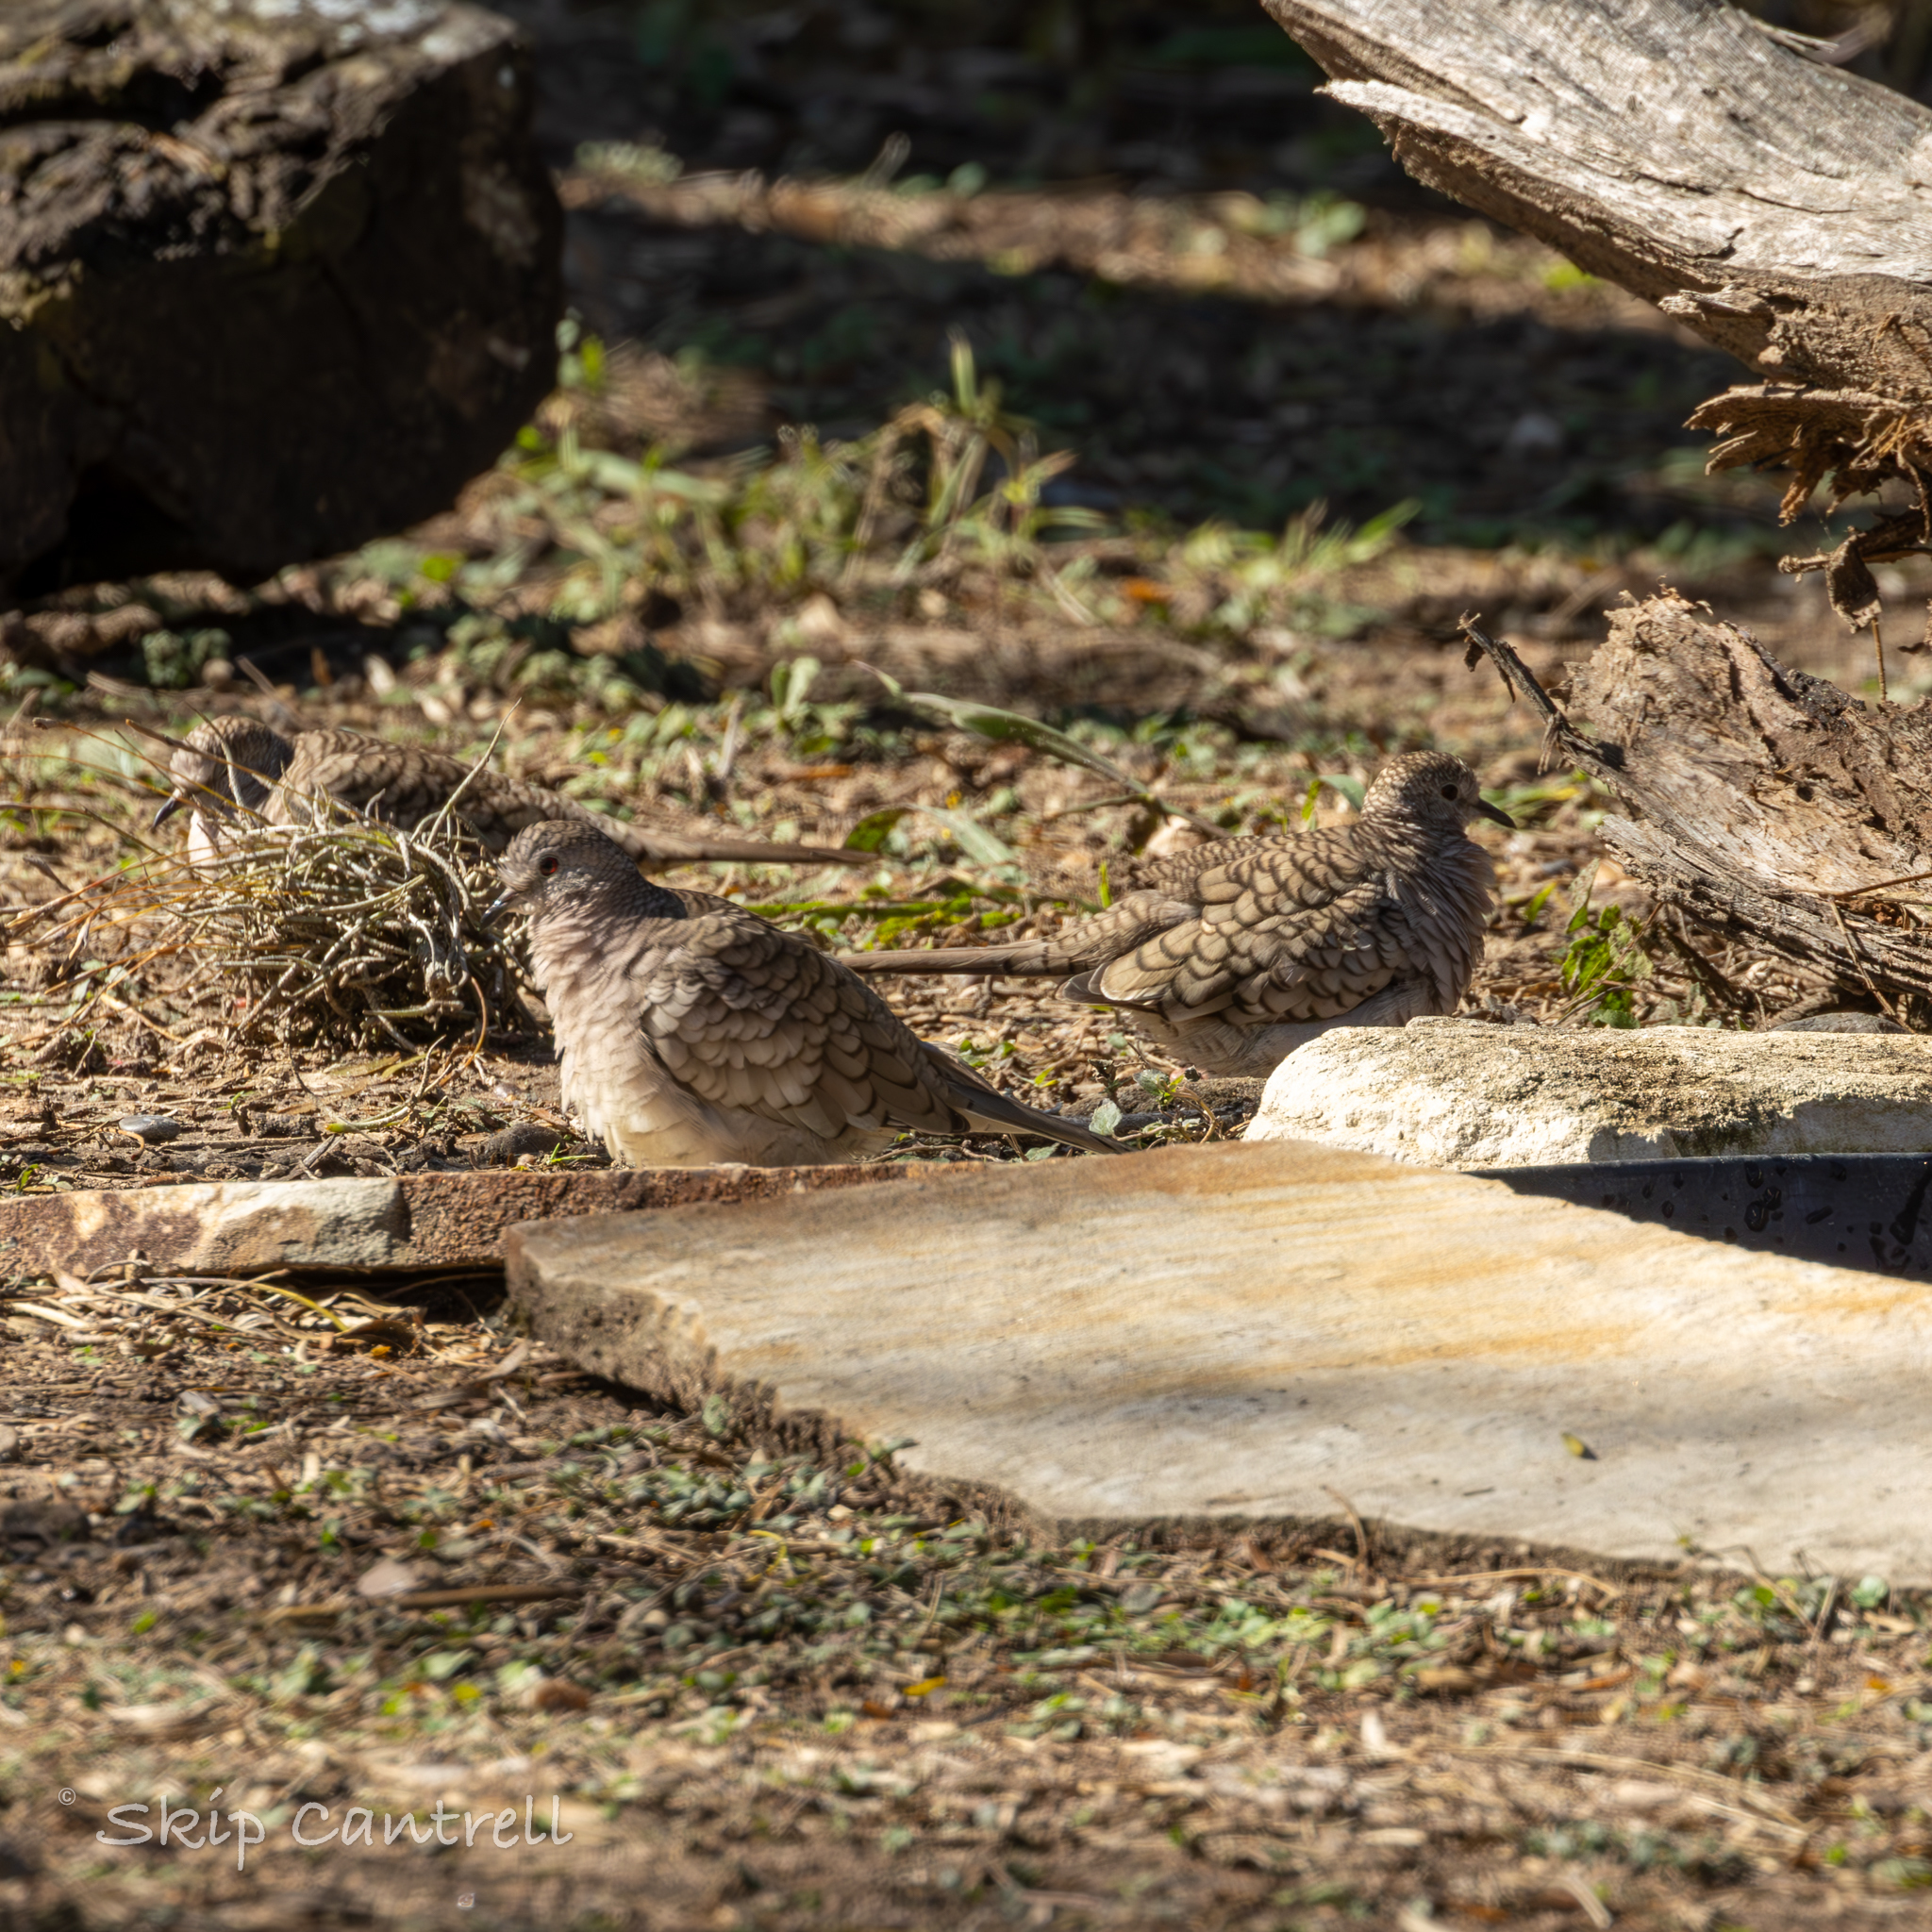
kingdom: Animalia
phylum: Chordata
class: Aves
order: Columbiformes
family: Columbidae
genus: Columbina
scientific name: Columbina inca
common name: Inca dove
